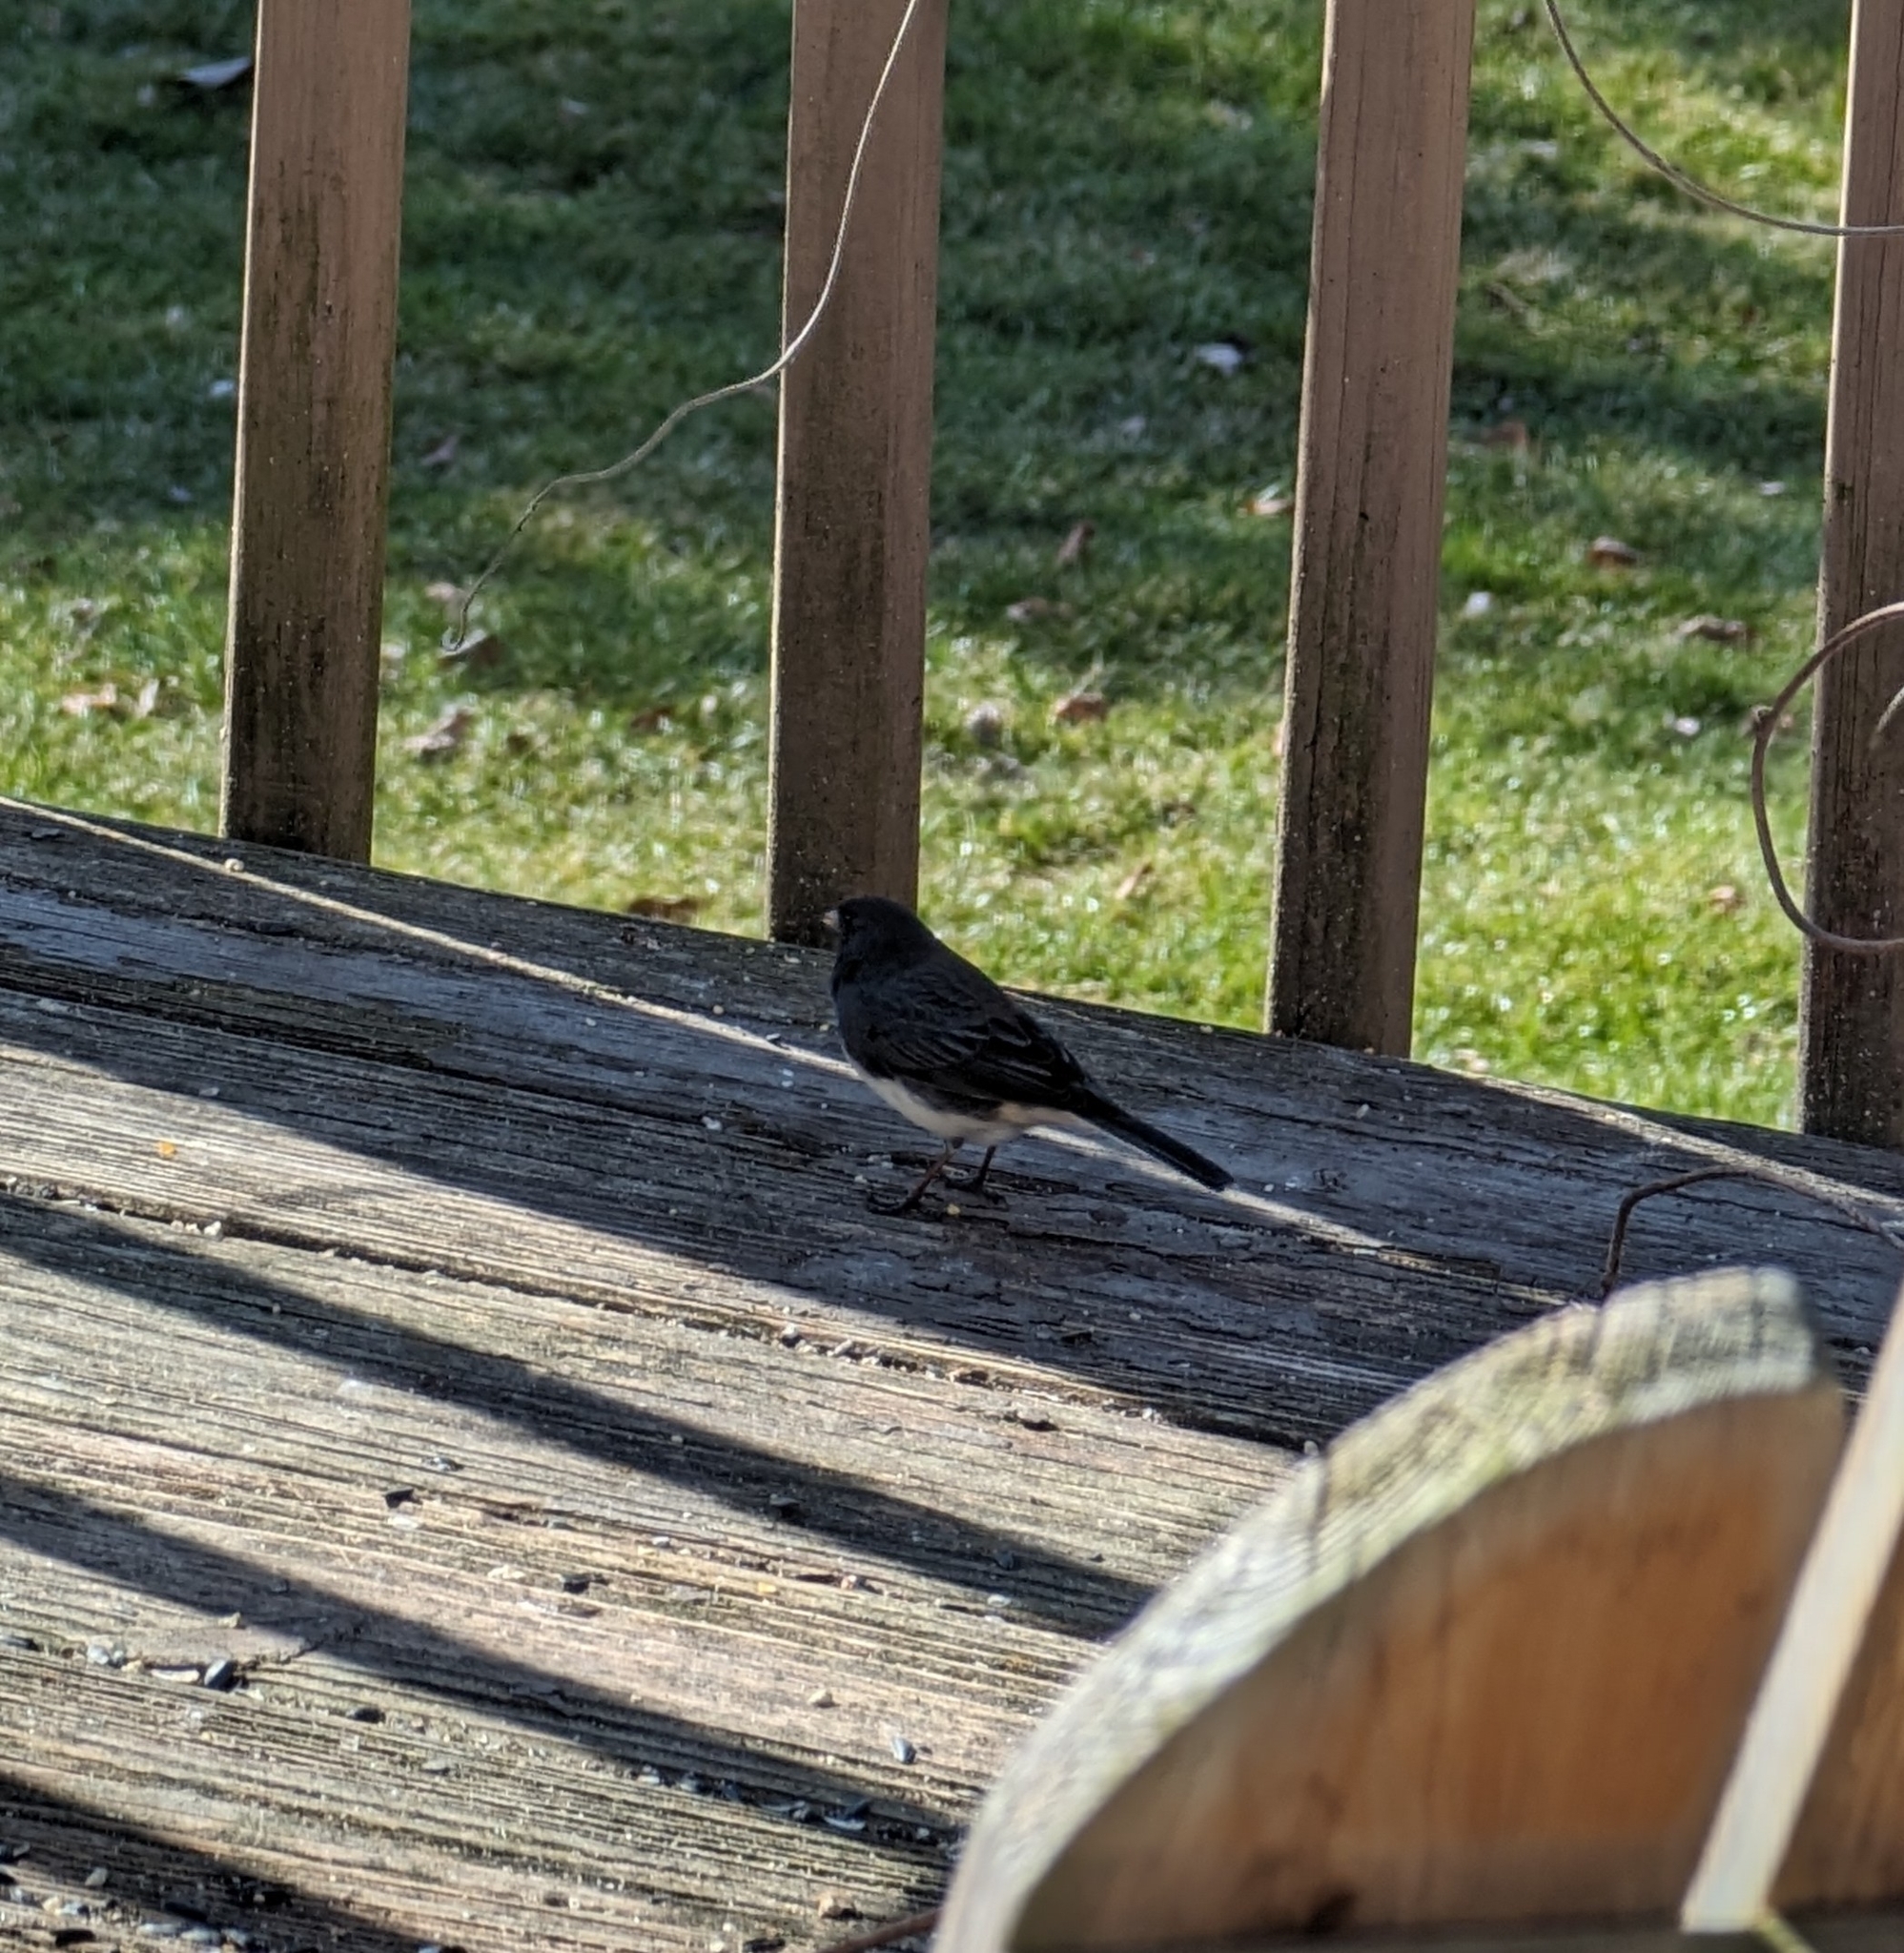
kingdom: Animalia
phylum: Chordata
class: Aves
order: Passeriformes
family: Passerellidae
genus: Junco
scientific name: Junco hyemalis
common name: Dark-eyed junco
